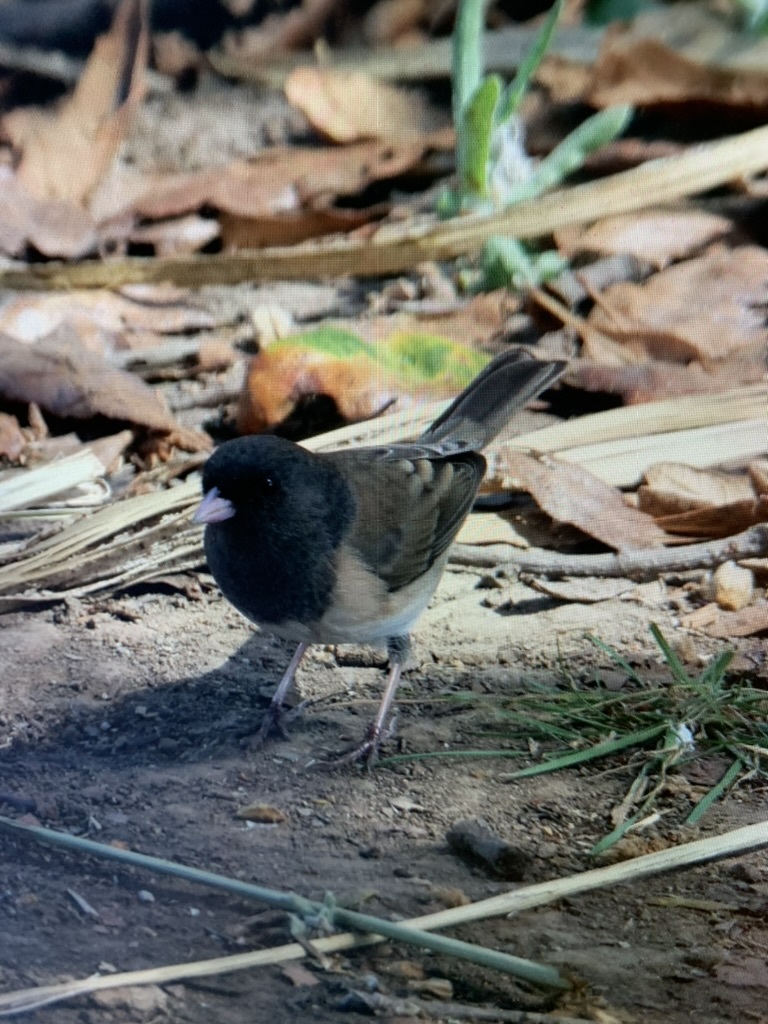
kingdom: Animalia
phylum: Chordata
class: Aves
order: Passeriformes
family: Passerellidae
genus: Junco
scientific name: Junco hyemalis
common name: Dark-eyed junco
